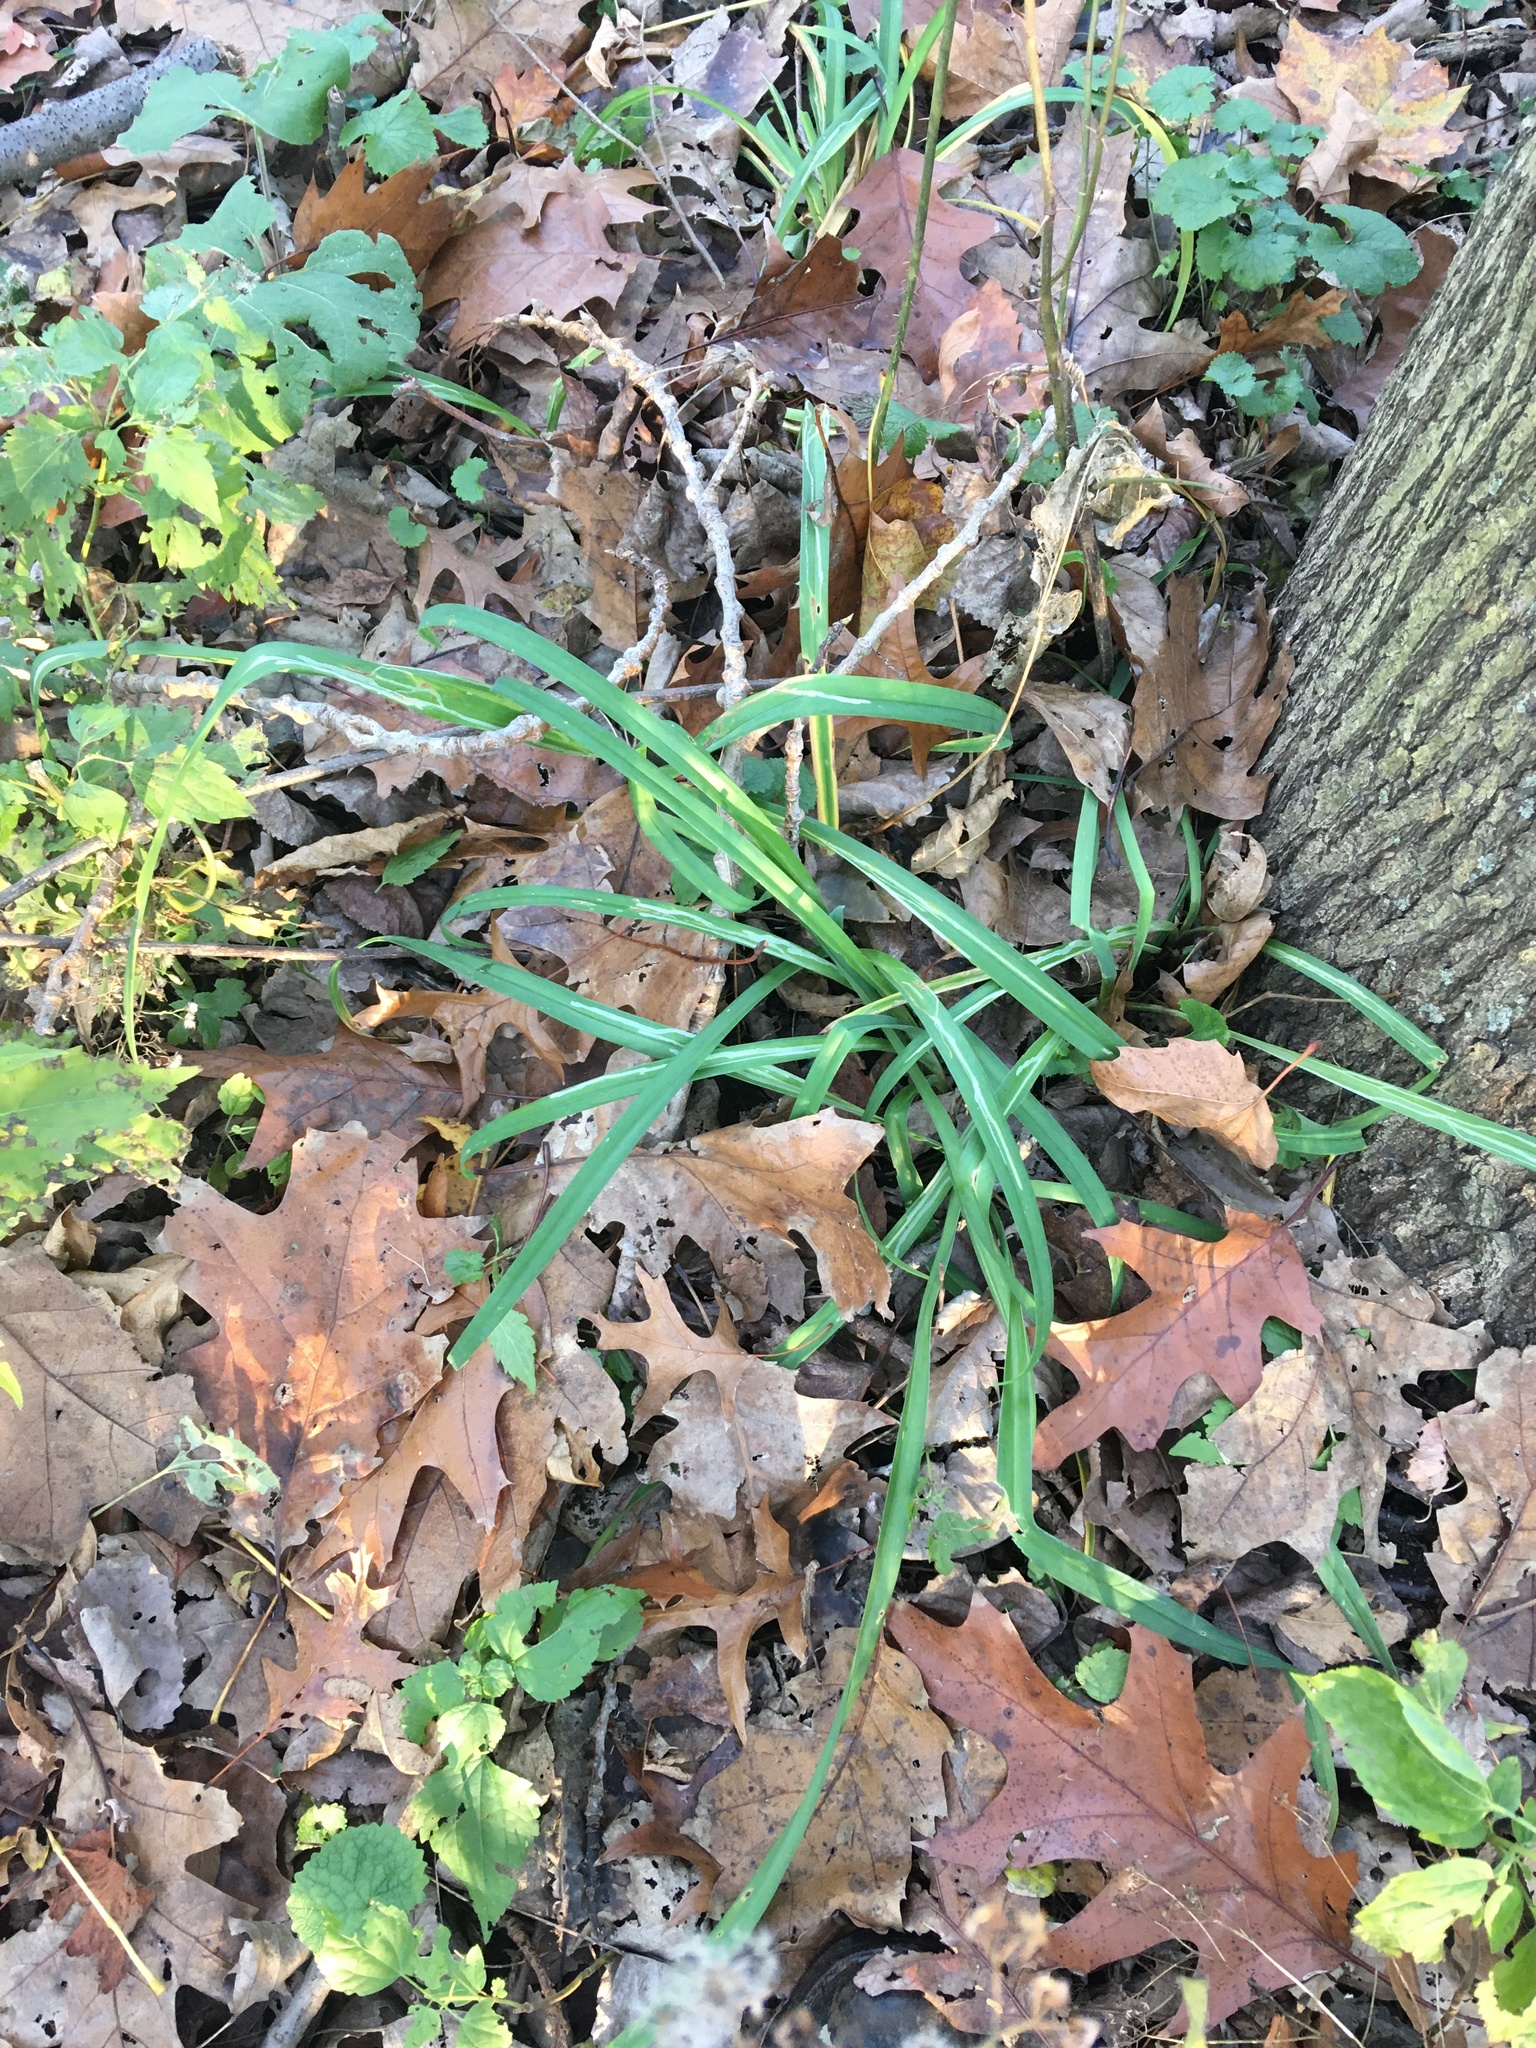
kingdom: Plantae
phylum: Tracheophyta
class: Liliopsida
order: Asparagales
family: Asphodelaceae
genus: Hemerocallis
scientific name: Hemerocallis fulva
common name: Orange day-lily
